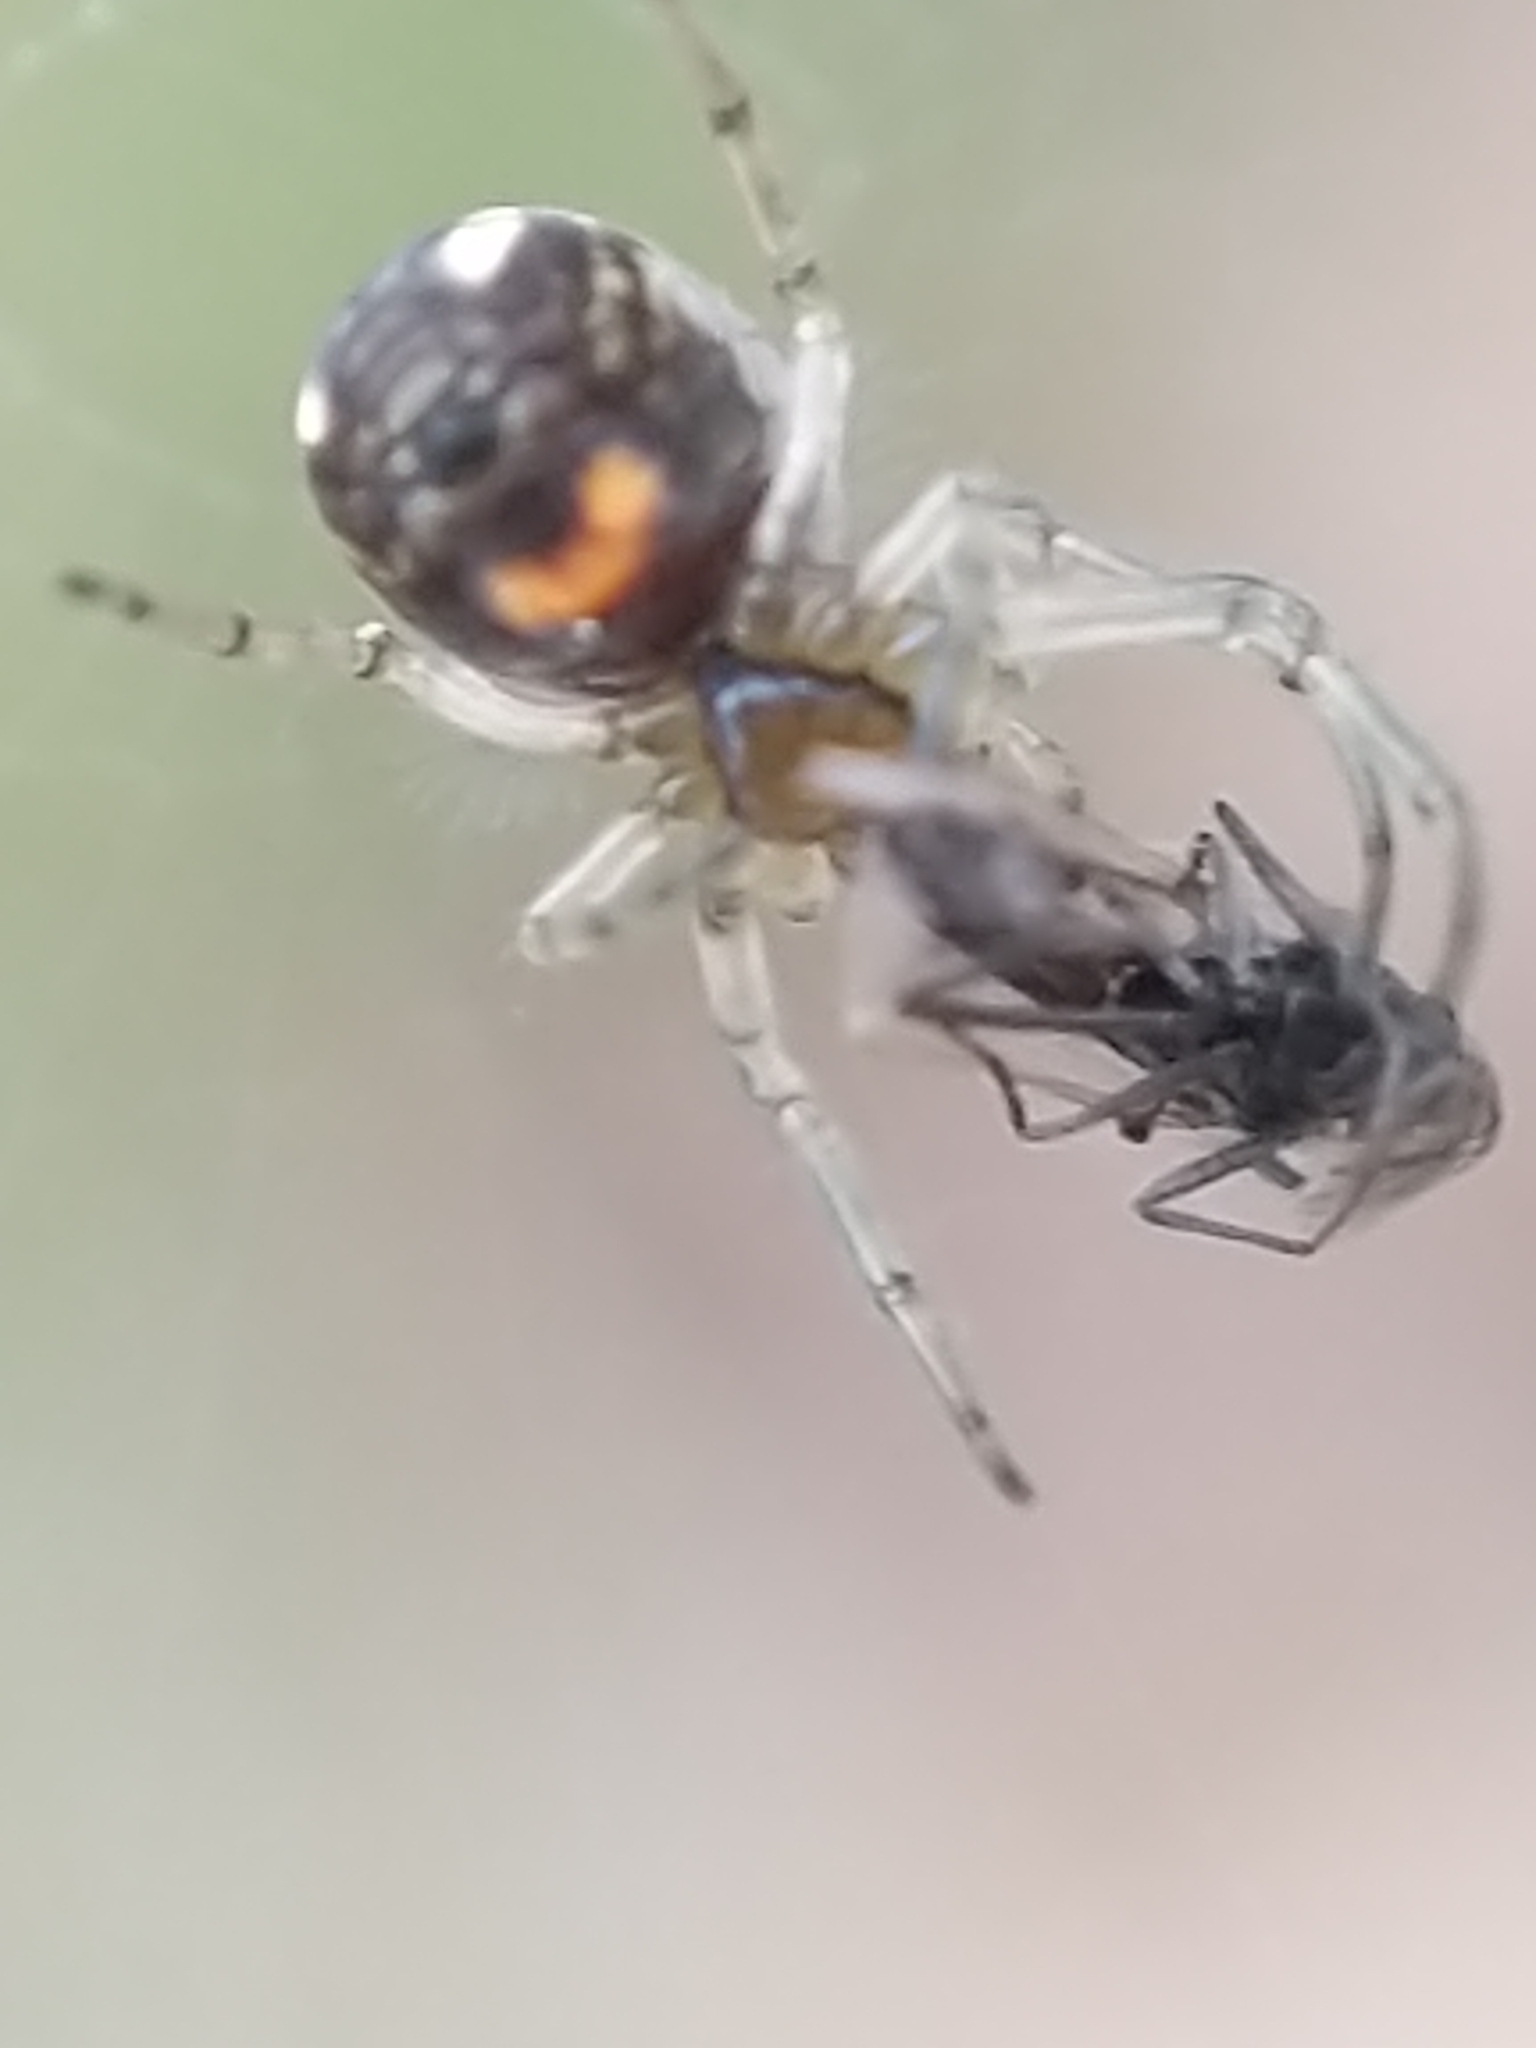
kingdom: Animalia
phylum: Arthropoda
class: Arachnida
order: Araneae
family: Tetragnathidae
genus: Leucauge
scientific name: Leucauge venusta
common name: Longjawed orb weavers
